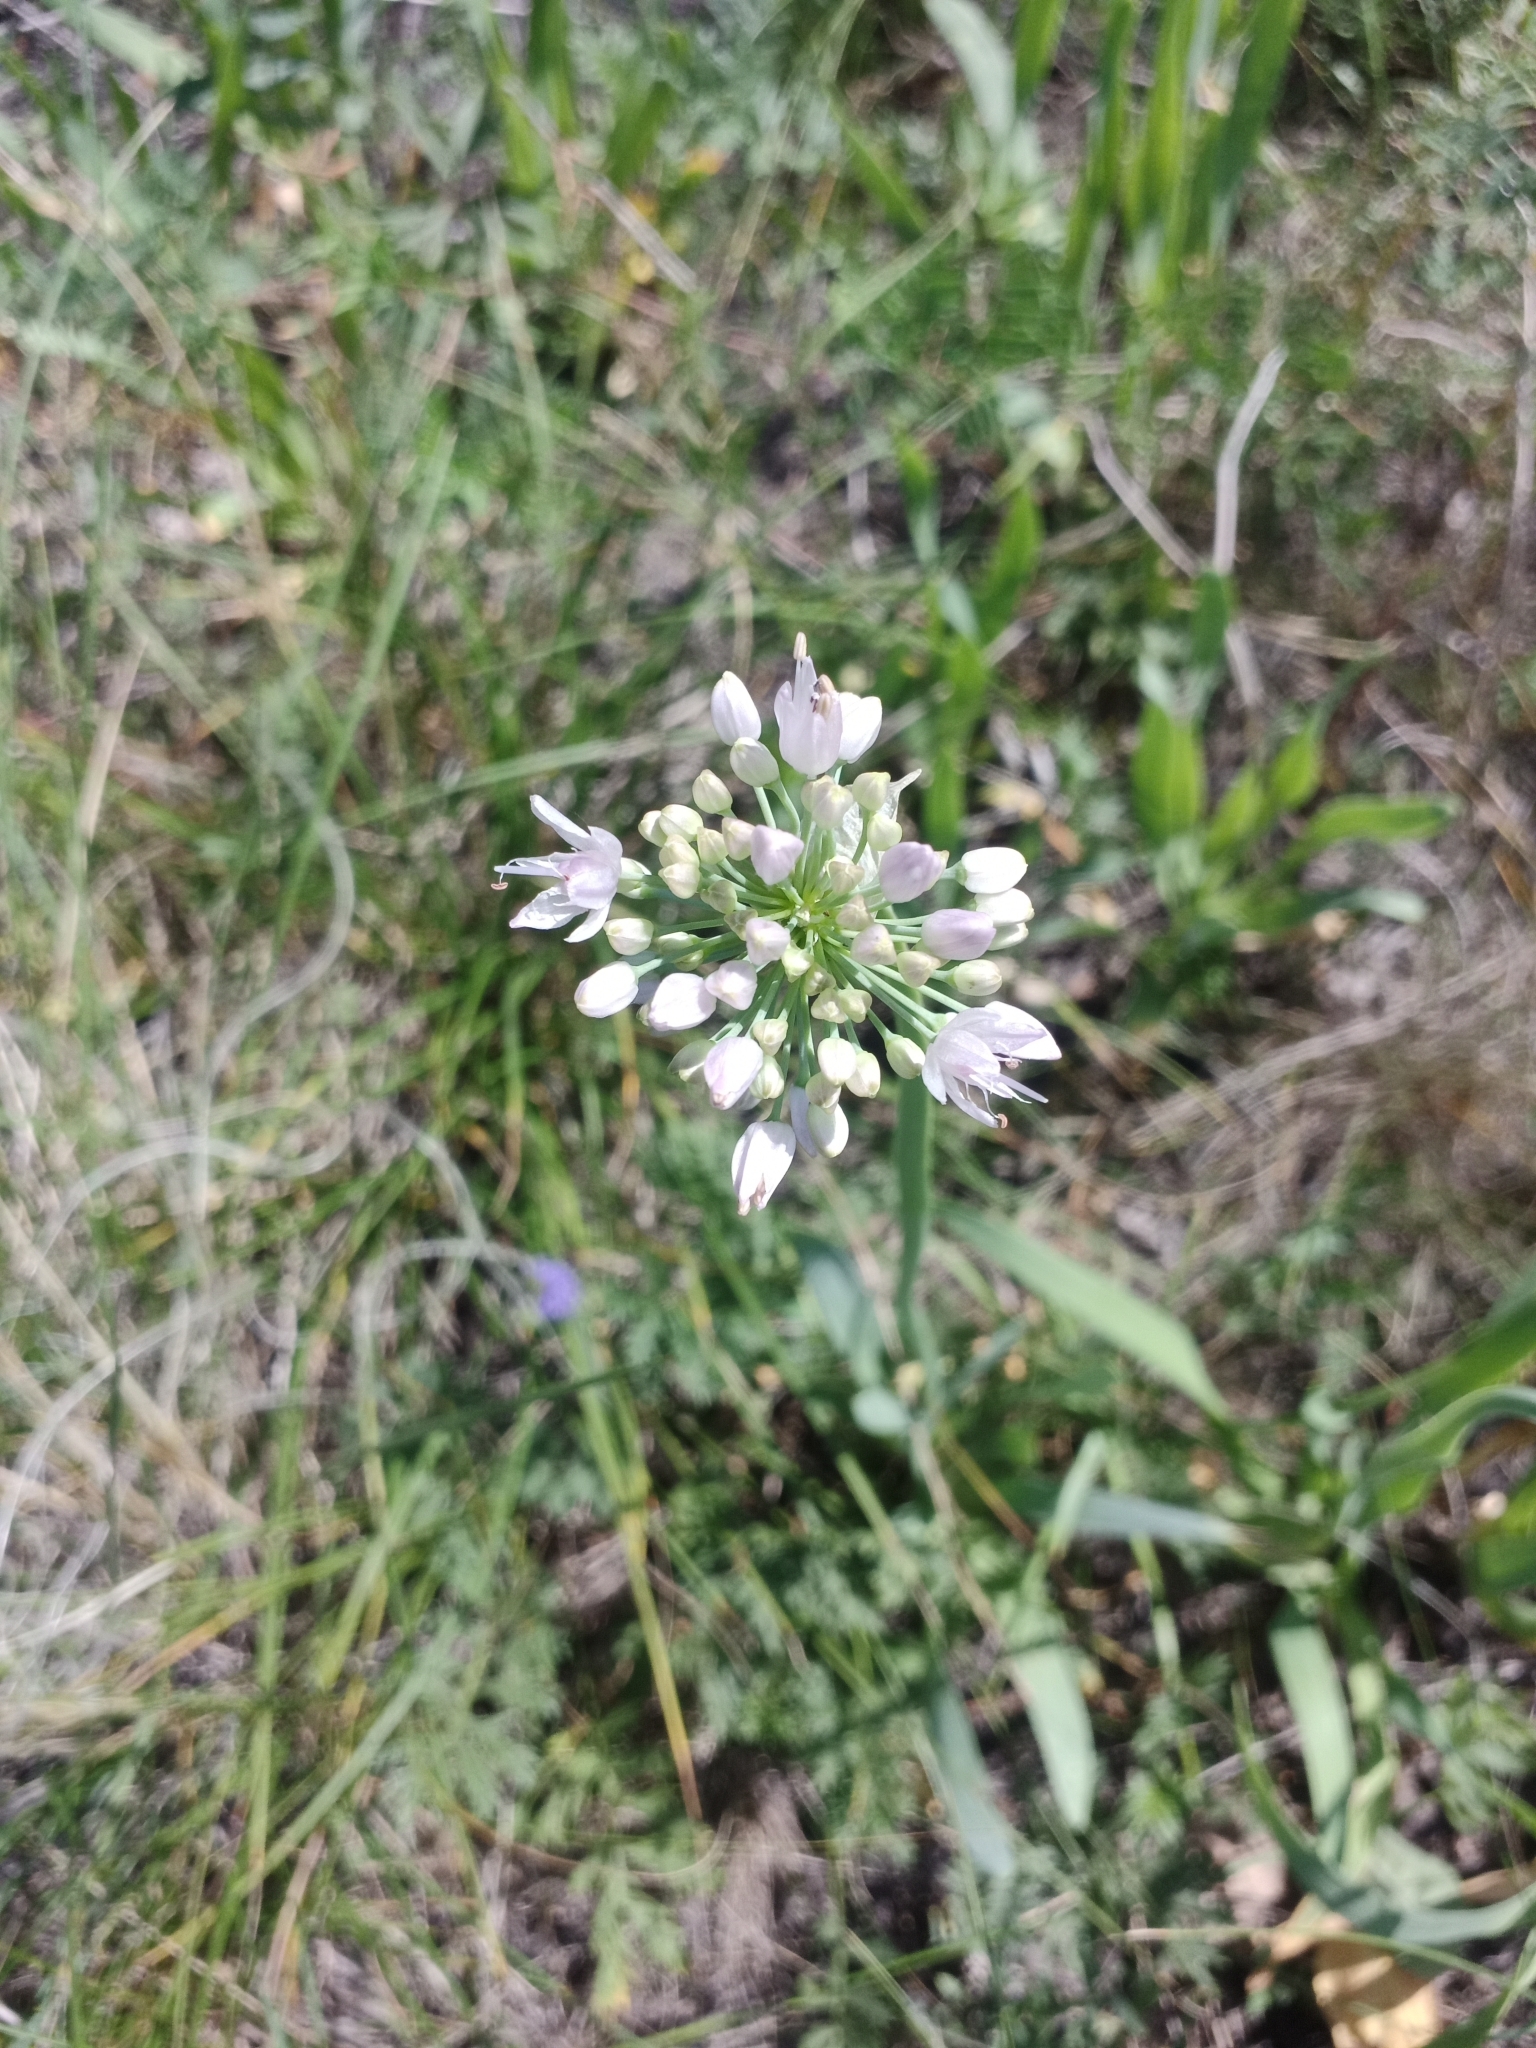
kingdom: Plantae
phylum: Tracheophyta
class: Liliopsida
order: Asparagales
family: Amaryllidaceae
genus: Allium
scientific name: Allium nutans
